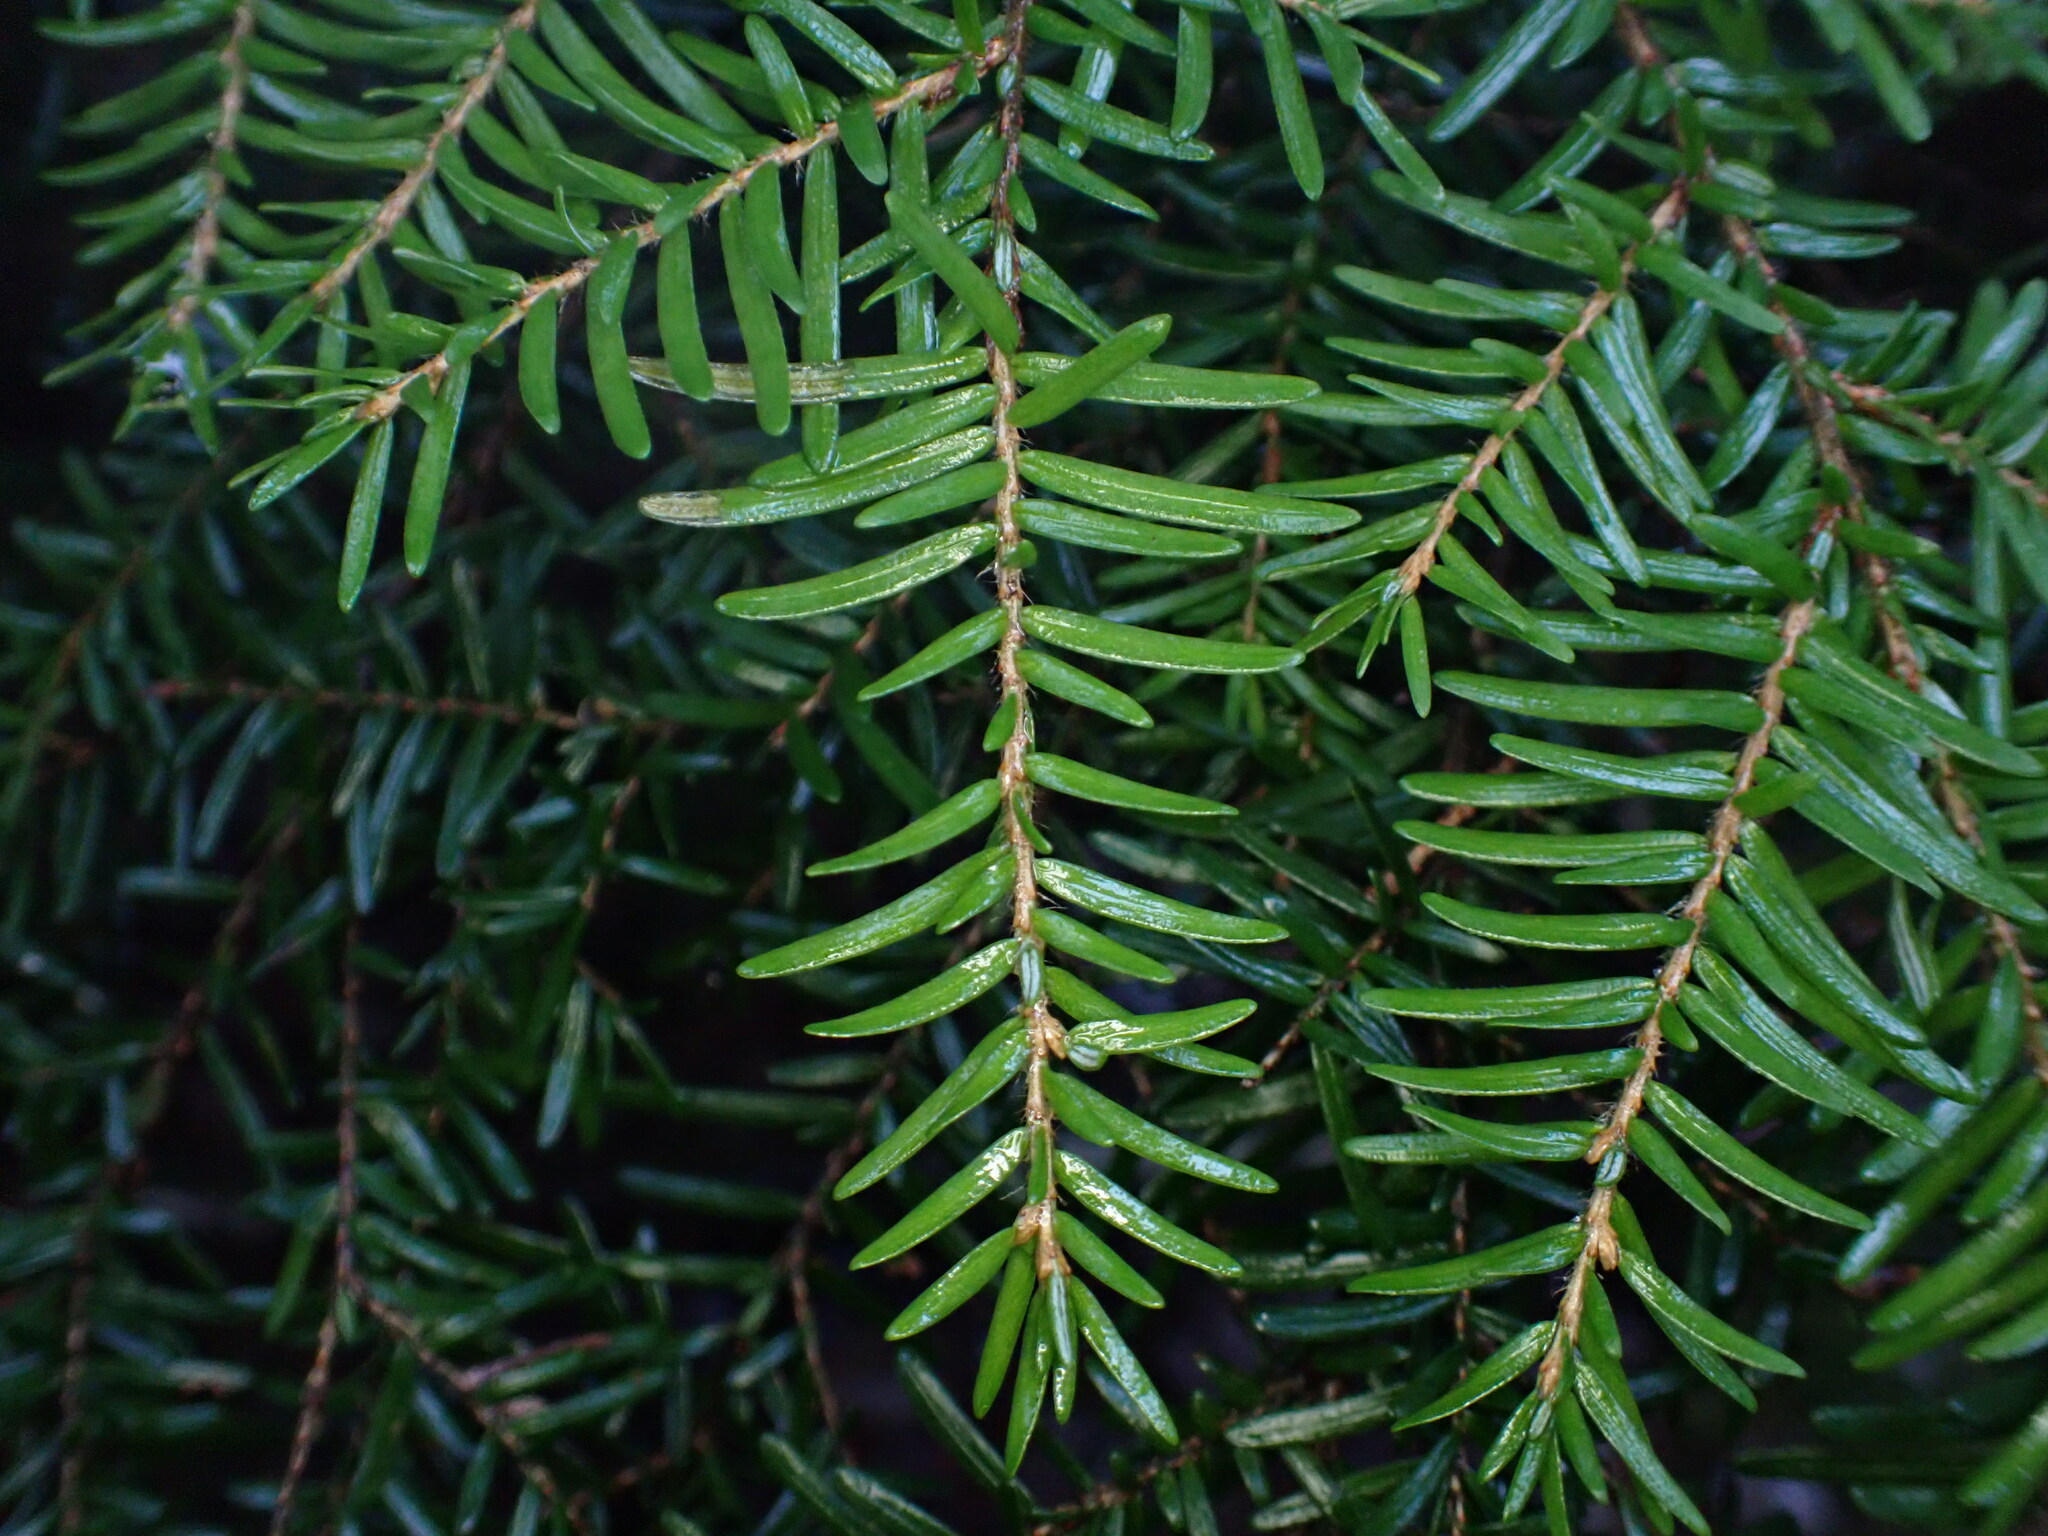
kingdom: Plantae
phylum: Tracheophyta
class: Pinopsida
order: Pinales
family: Pinaceae
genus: Tsuga
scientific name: Tsuga heterophylla
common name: Western hemlock
